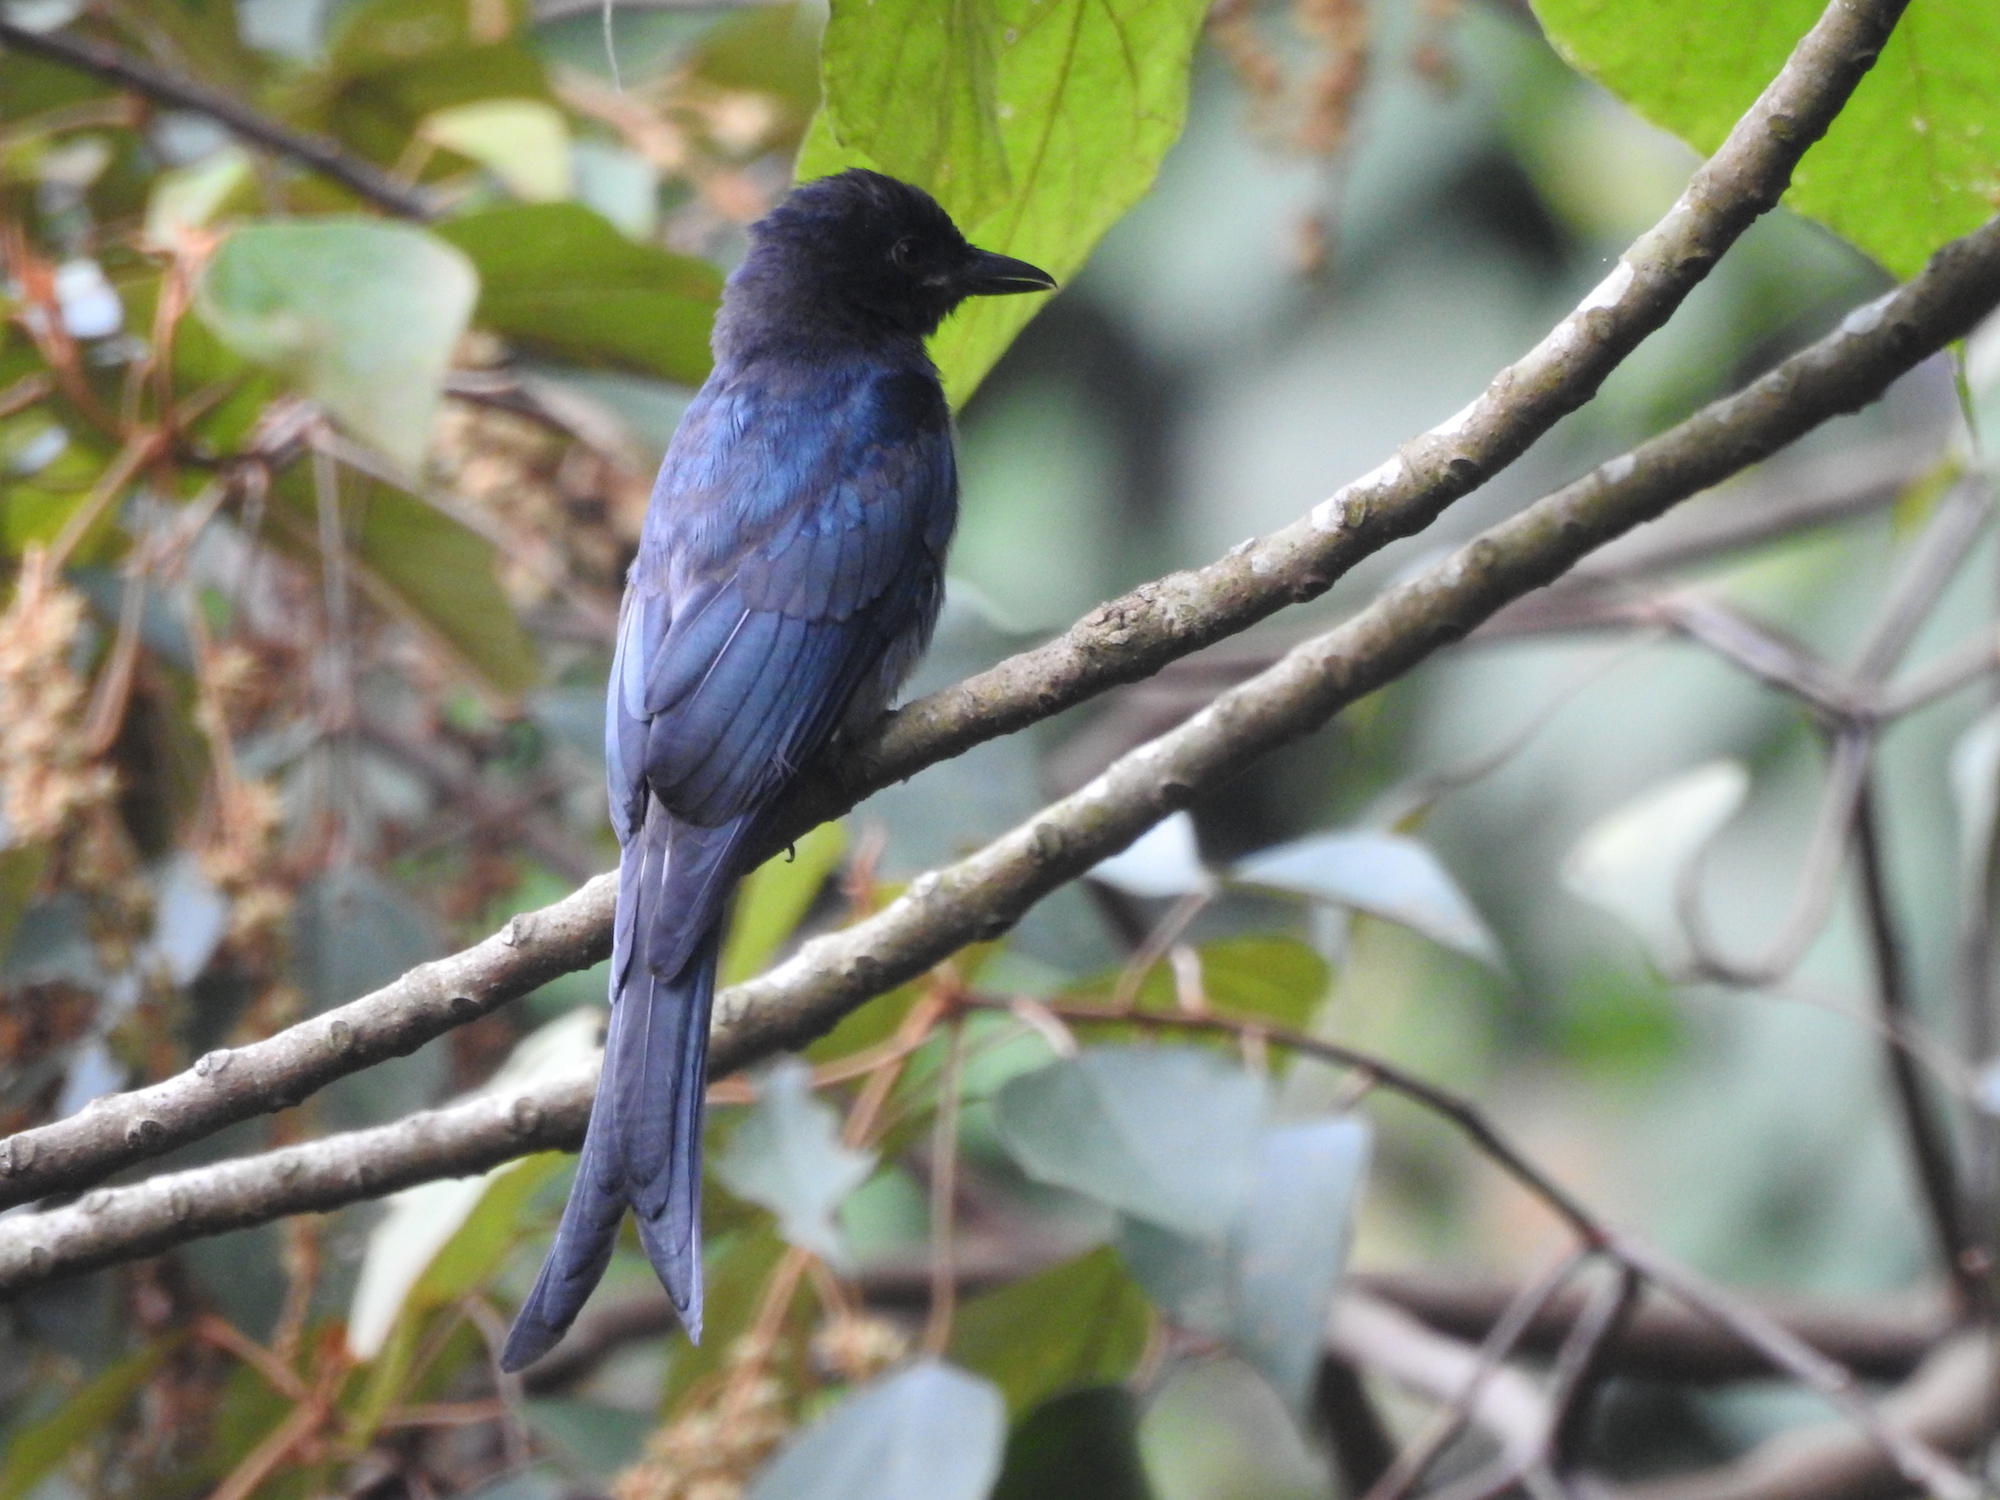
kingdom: Animalia
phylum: Chordata
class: Aves
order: Passeriformes
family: Dicruridae
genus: Dicrurus
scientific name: Dicrurus macrocercus
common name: Black drongo
